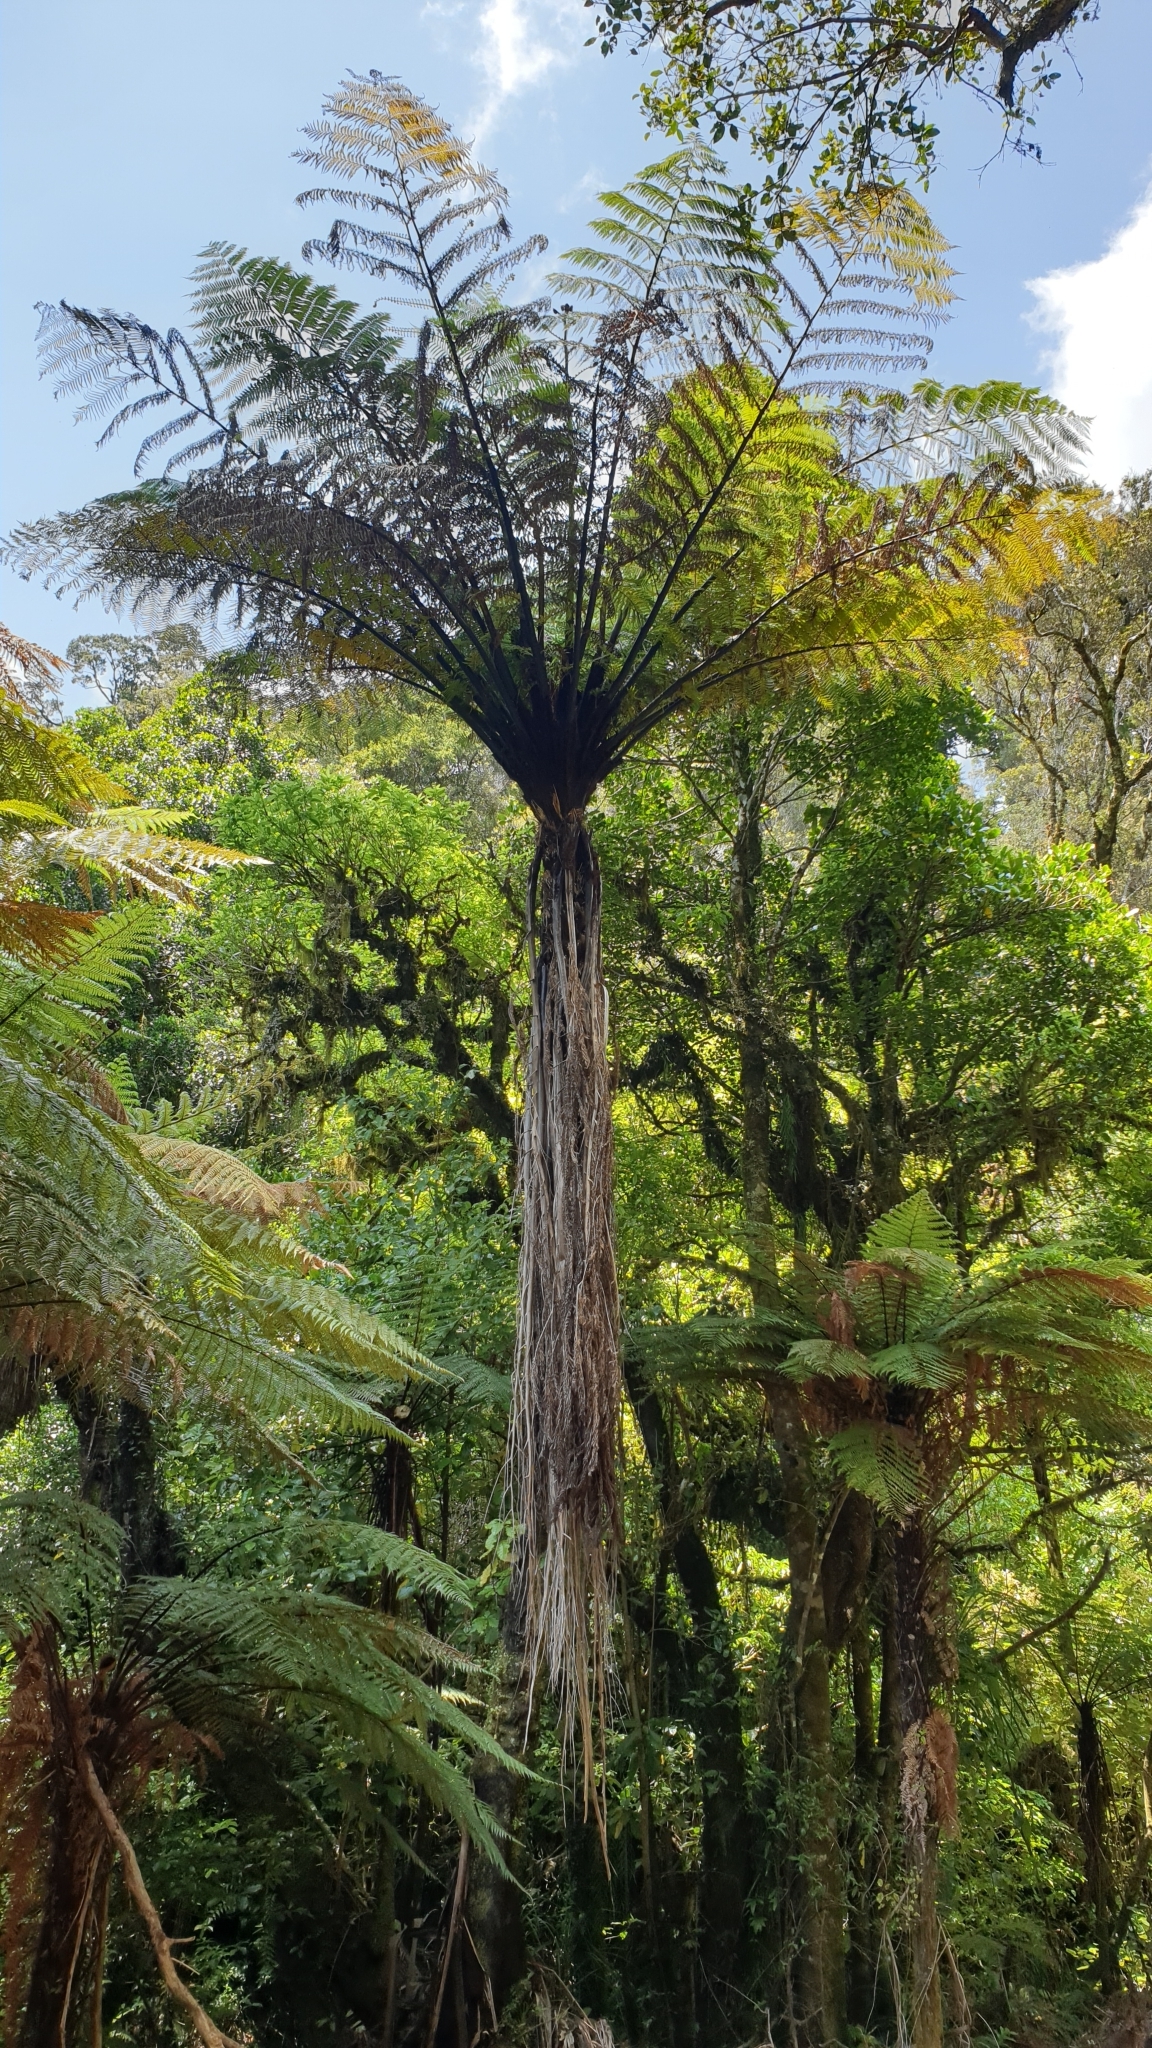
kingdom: Plantae
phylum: Tracheophyta
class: Polypodiopsida
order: Cyatheales
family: Cyatheaceae
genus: Sphaeropteris
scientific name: Sphaeropteris medullaris
